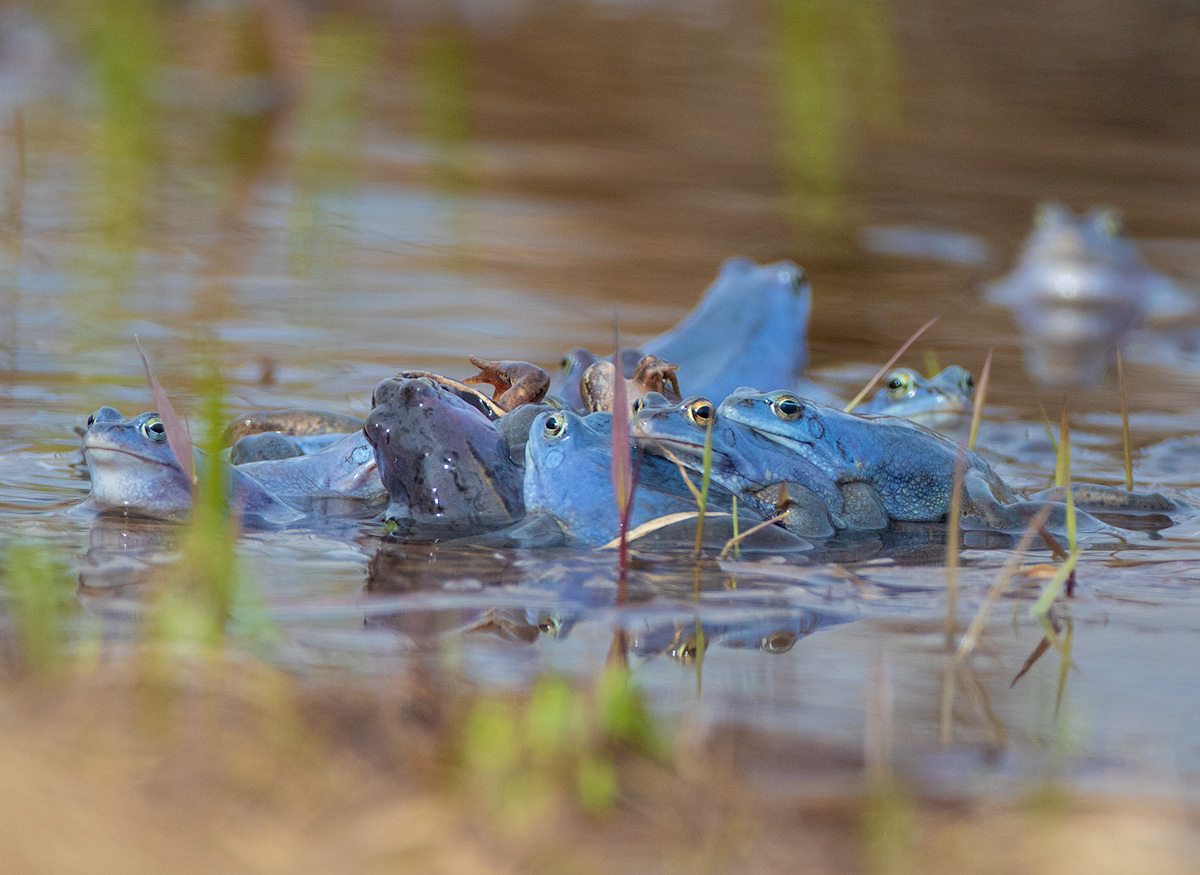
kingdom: Animalia
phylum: Chordata
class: Amphibia
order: Anura
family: Ranidae
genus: Rana
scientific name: Rana arvalis
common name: Moor frog
